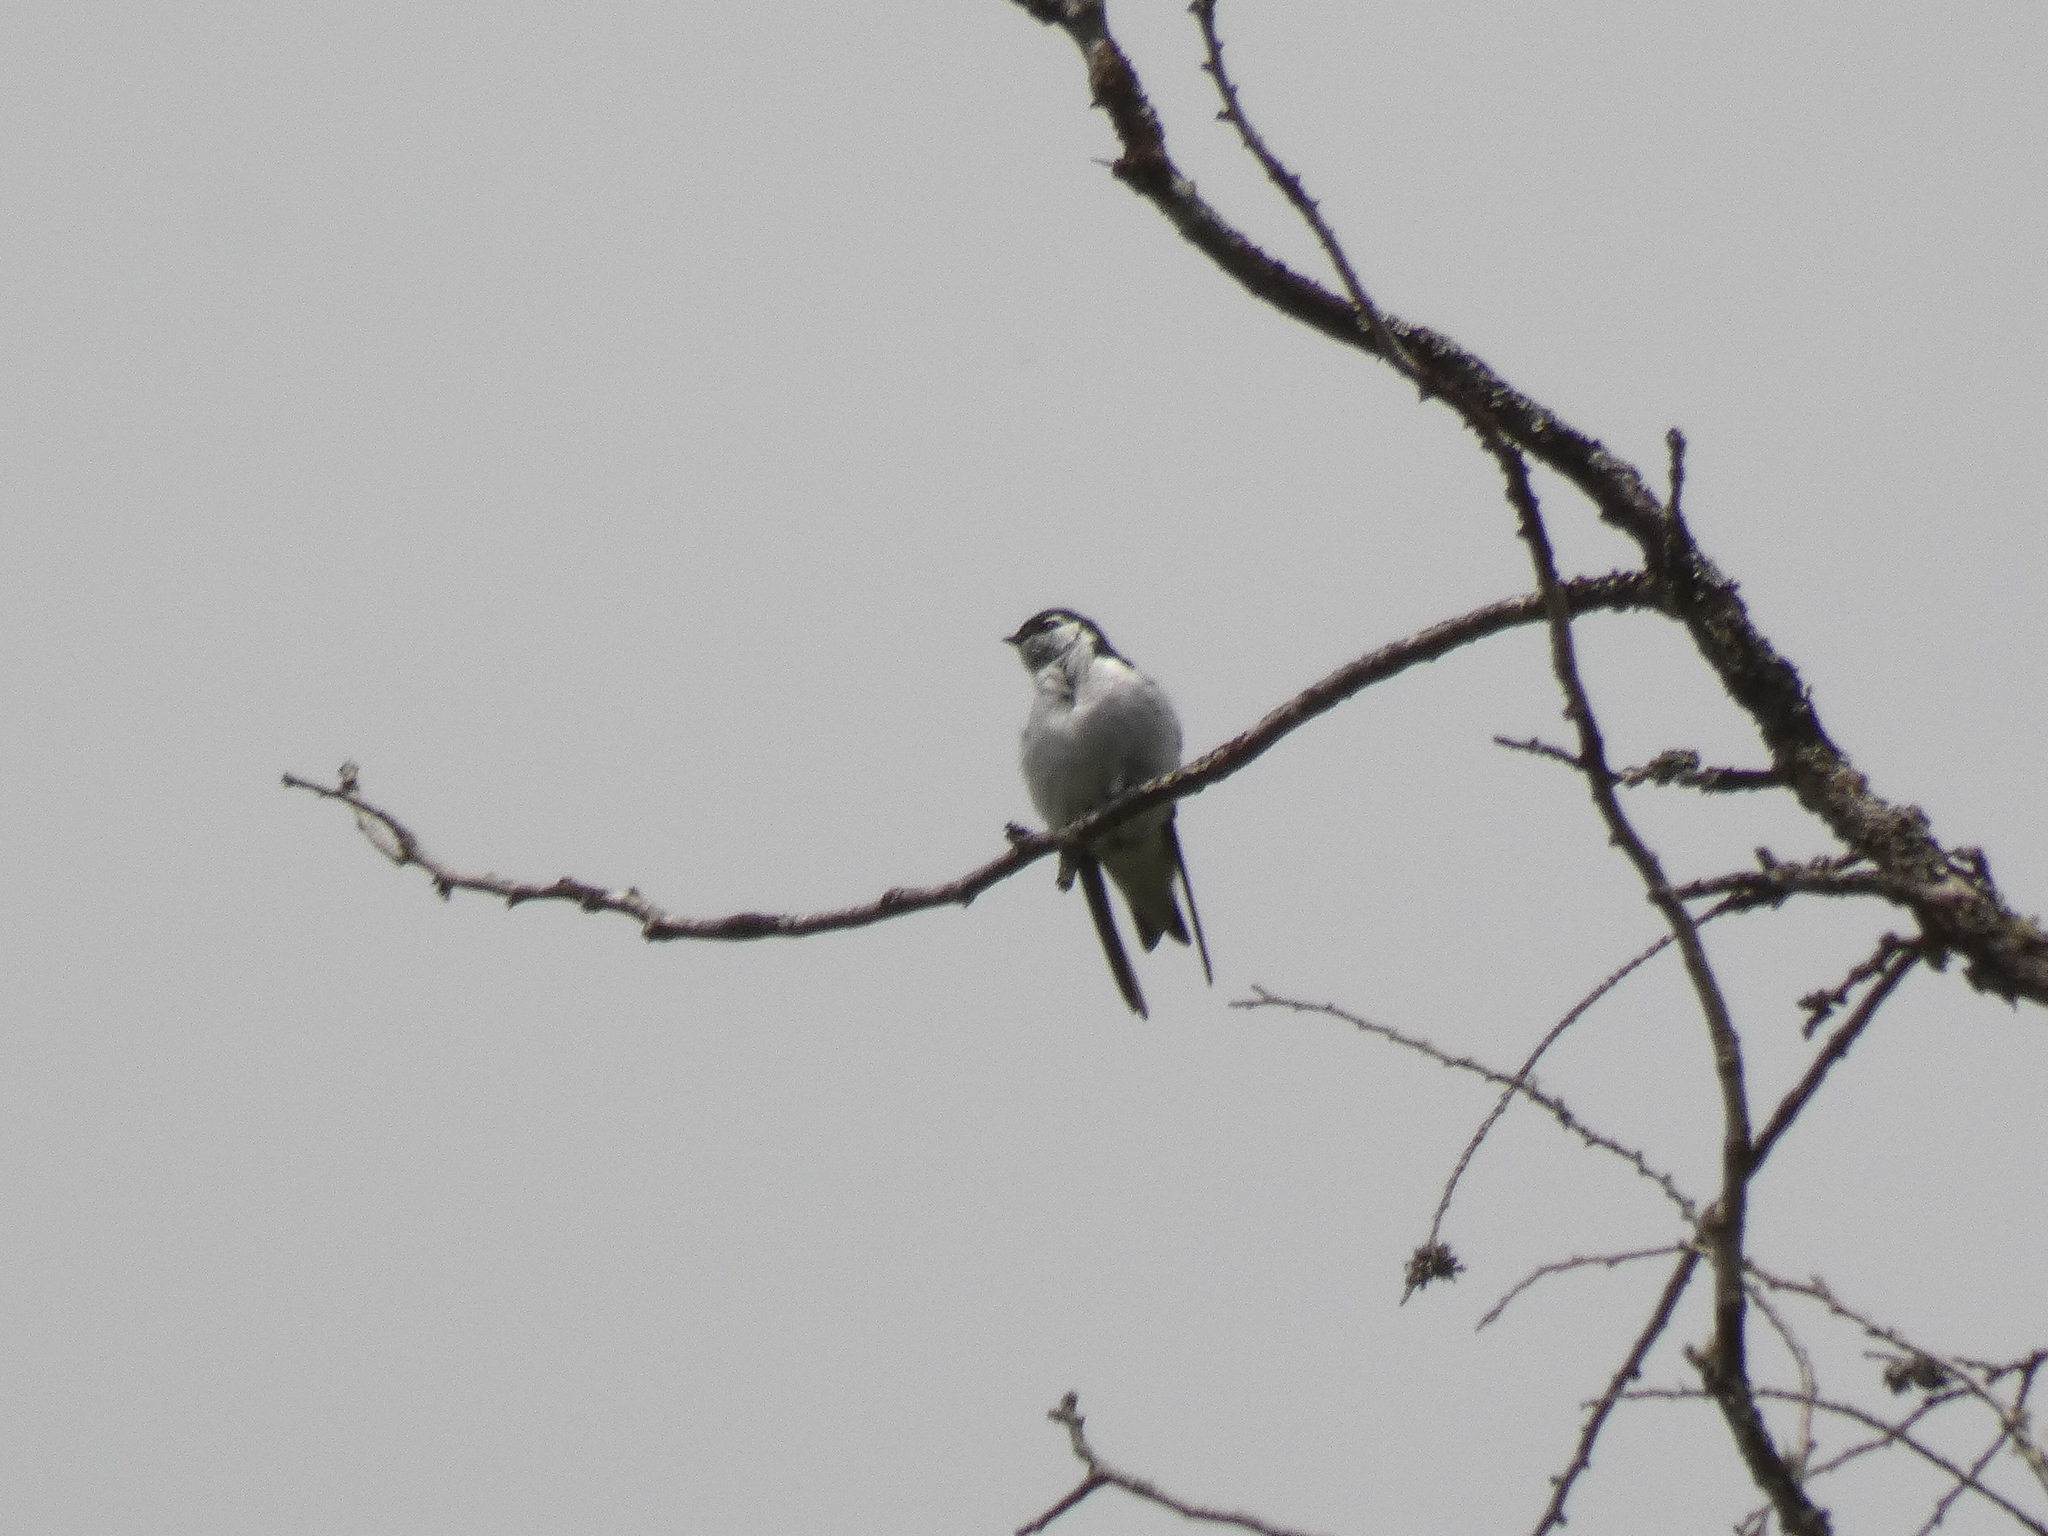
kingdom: Animalia
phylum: Chordata
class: Aves
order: Passeriformes
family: Hirundinidae
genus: Tachycineta
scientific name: Tachycineta thalassina
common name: Violet-green swallow
